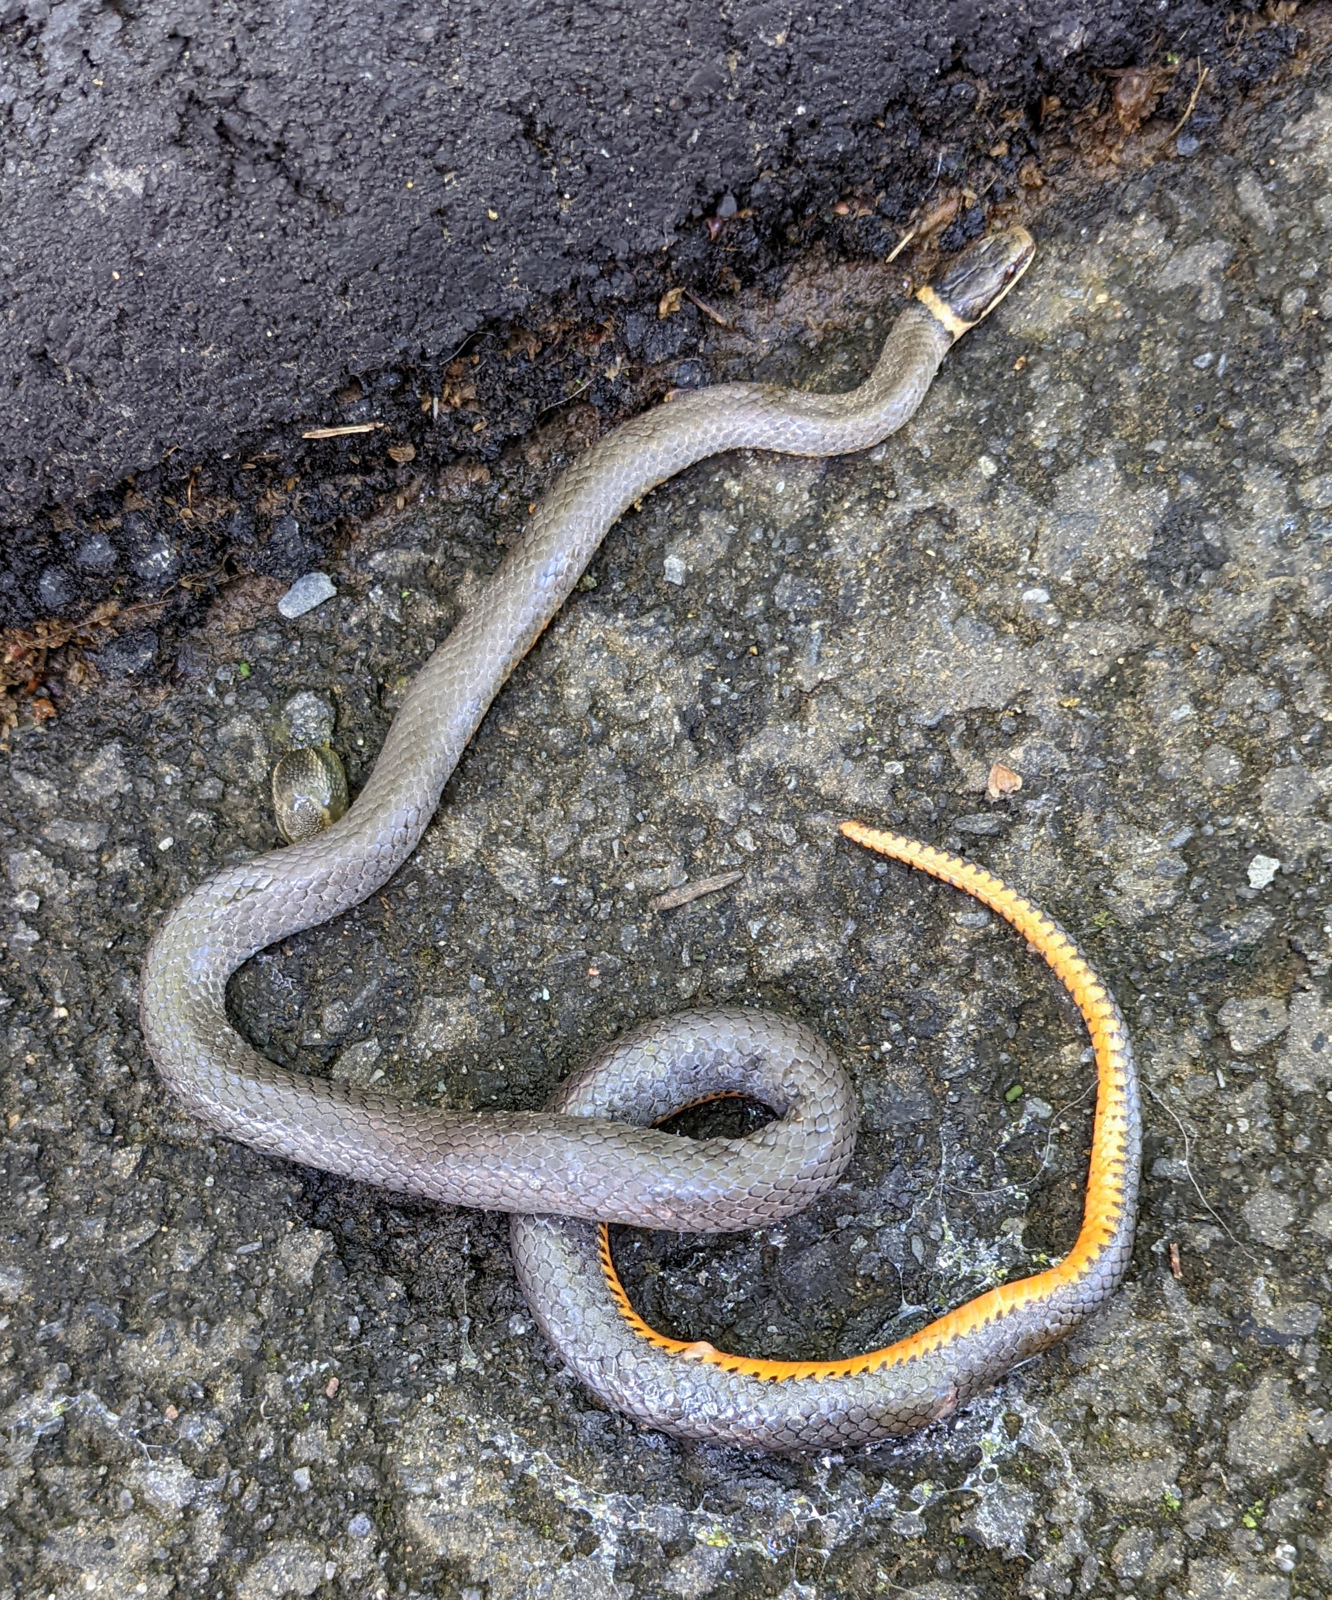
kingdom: Animalia
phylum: Chordata
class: Squamata
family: Colubridae
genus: Diadophis
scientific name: Diadophis punctatus
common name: Ringneck snake
